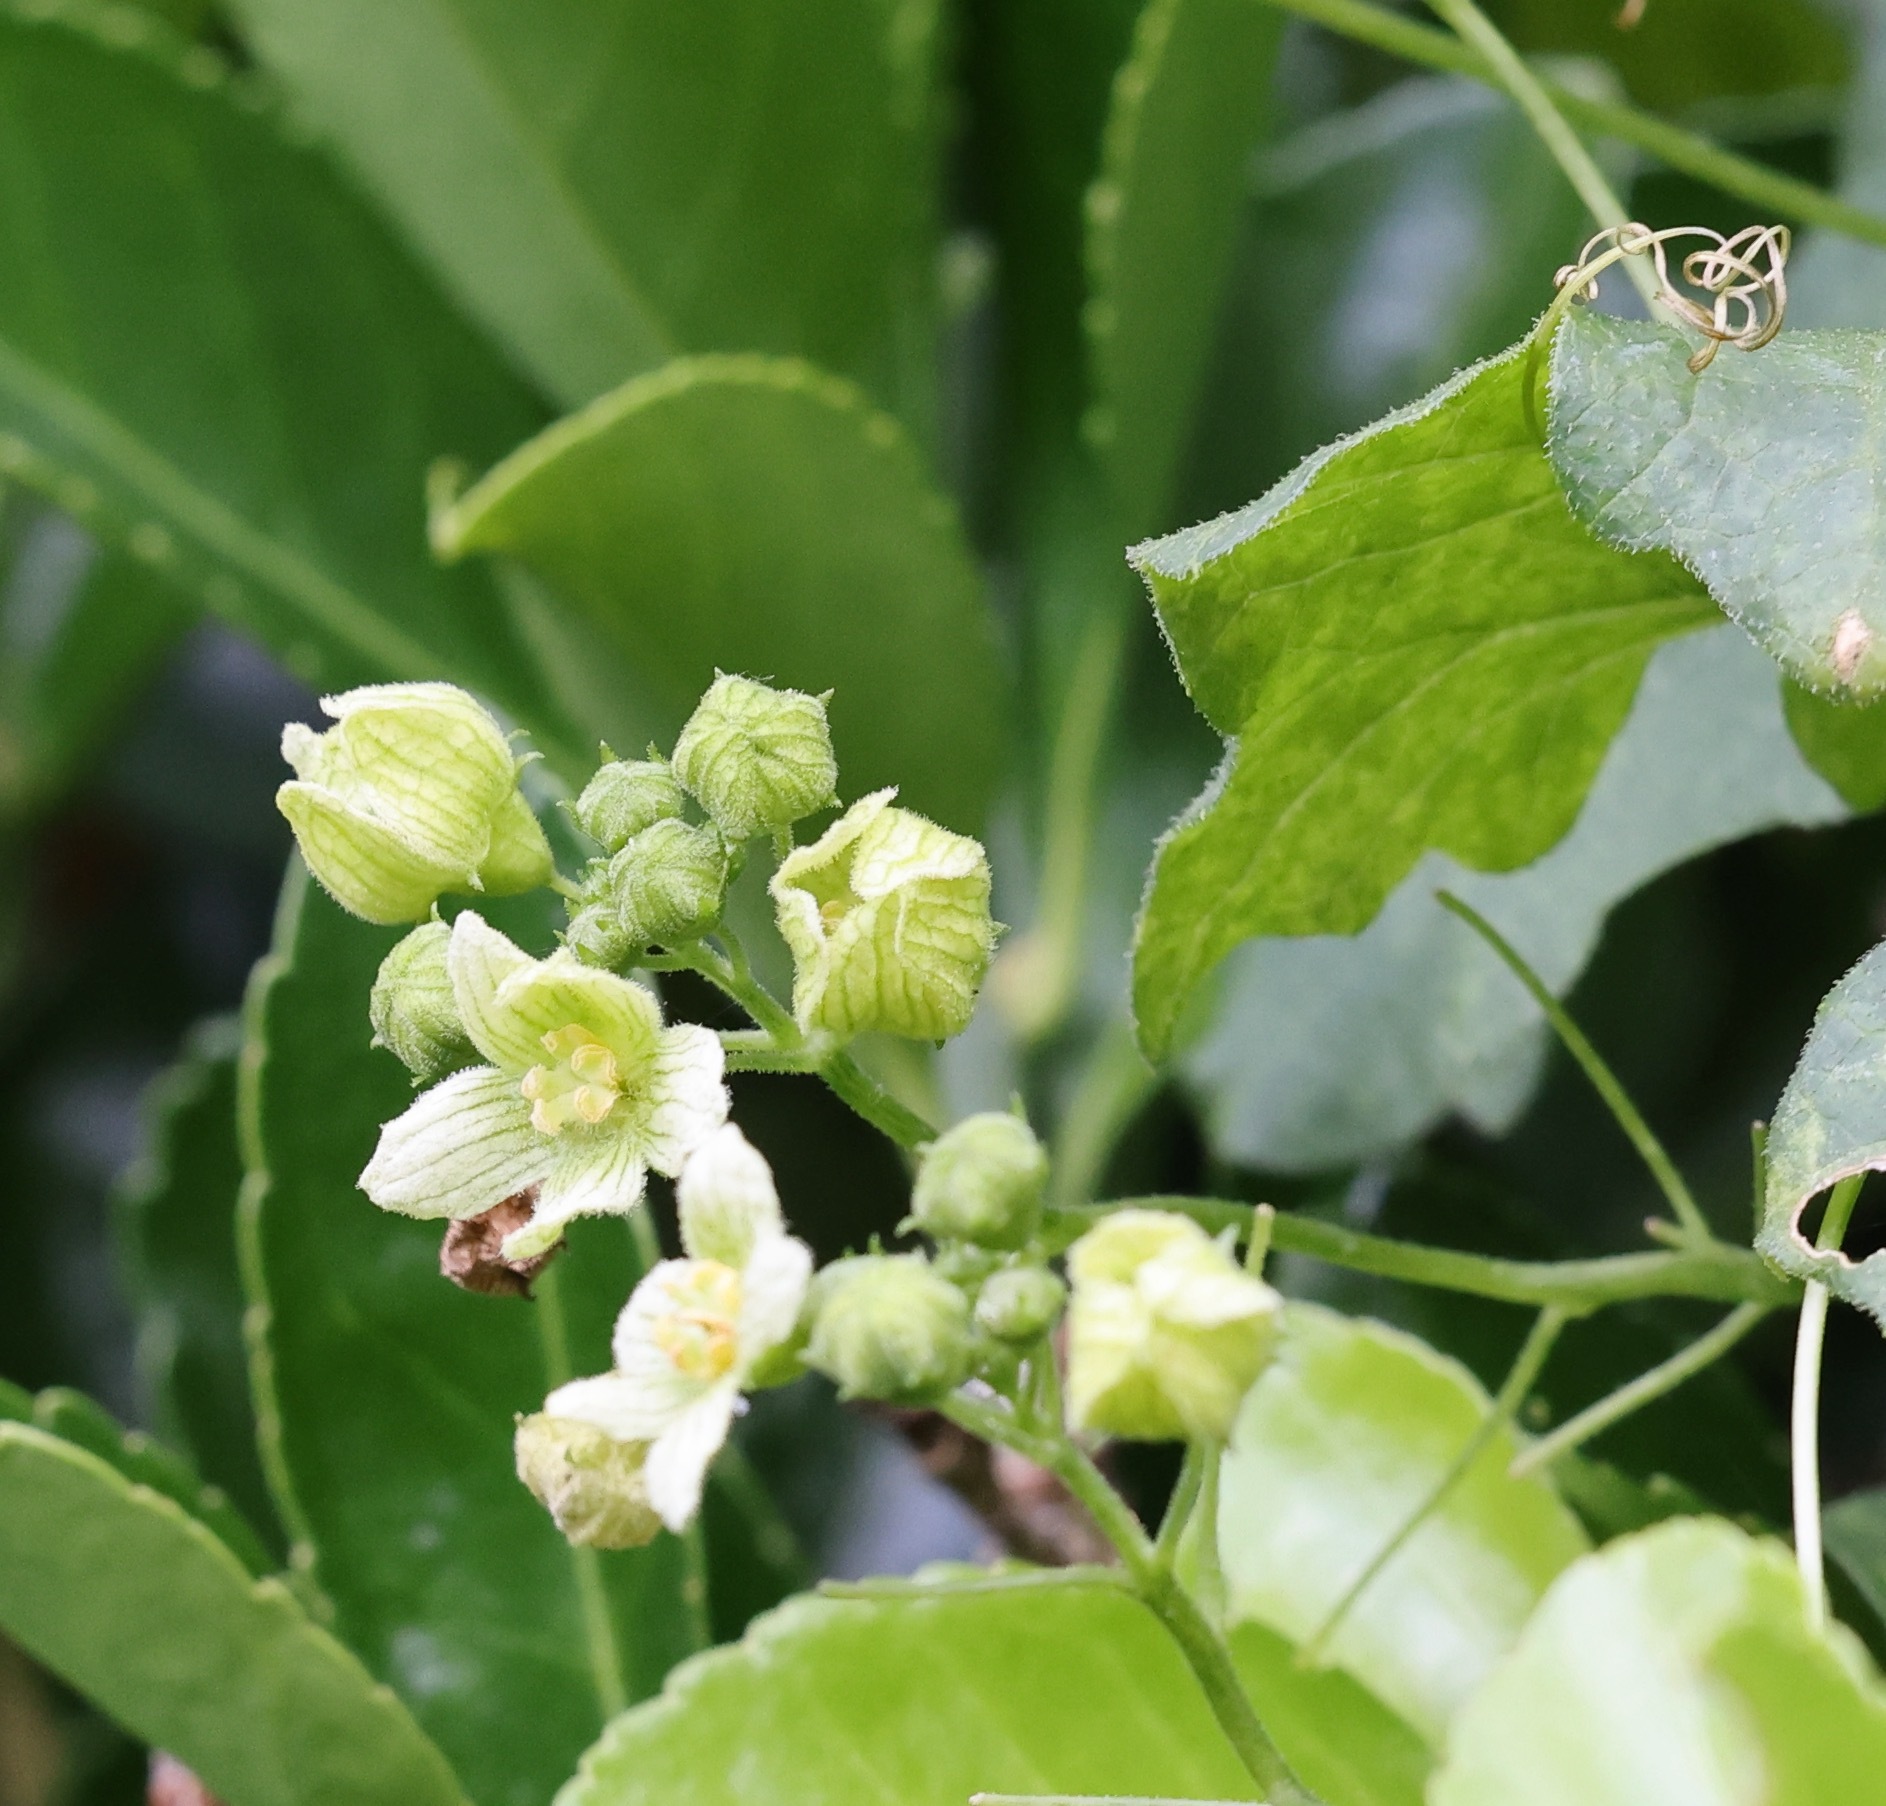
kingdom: Plantae
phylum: Tracheophyta
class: Magnoliopsida
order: Cucurbitales
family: Cucurbitaceae
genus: Bryonia
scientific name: Bryonia cretica
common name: Cretan bryony
